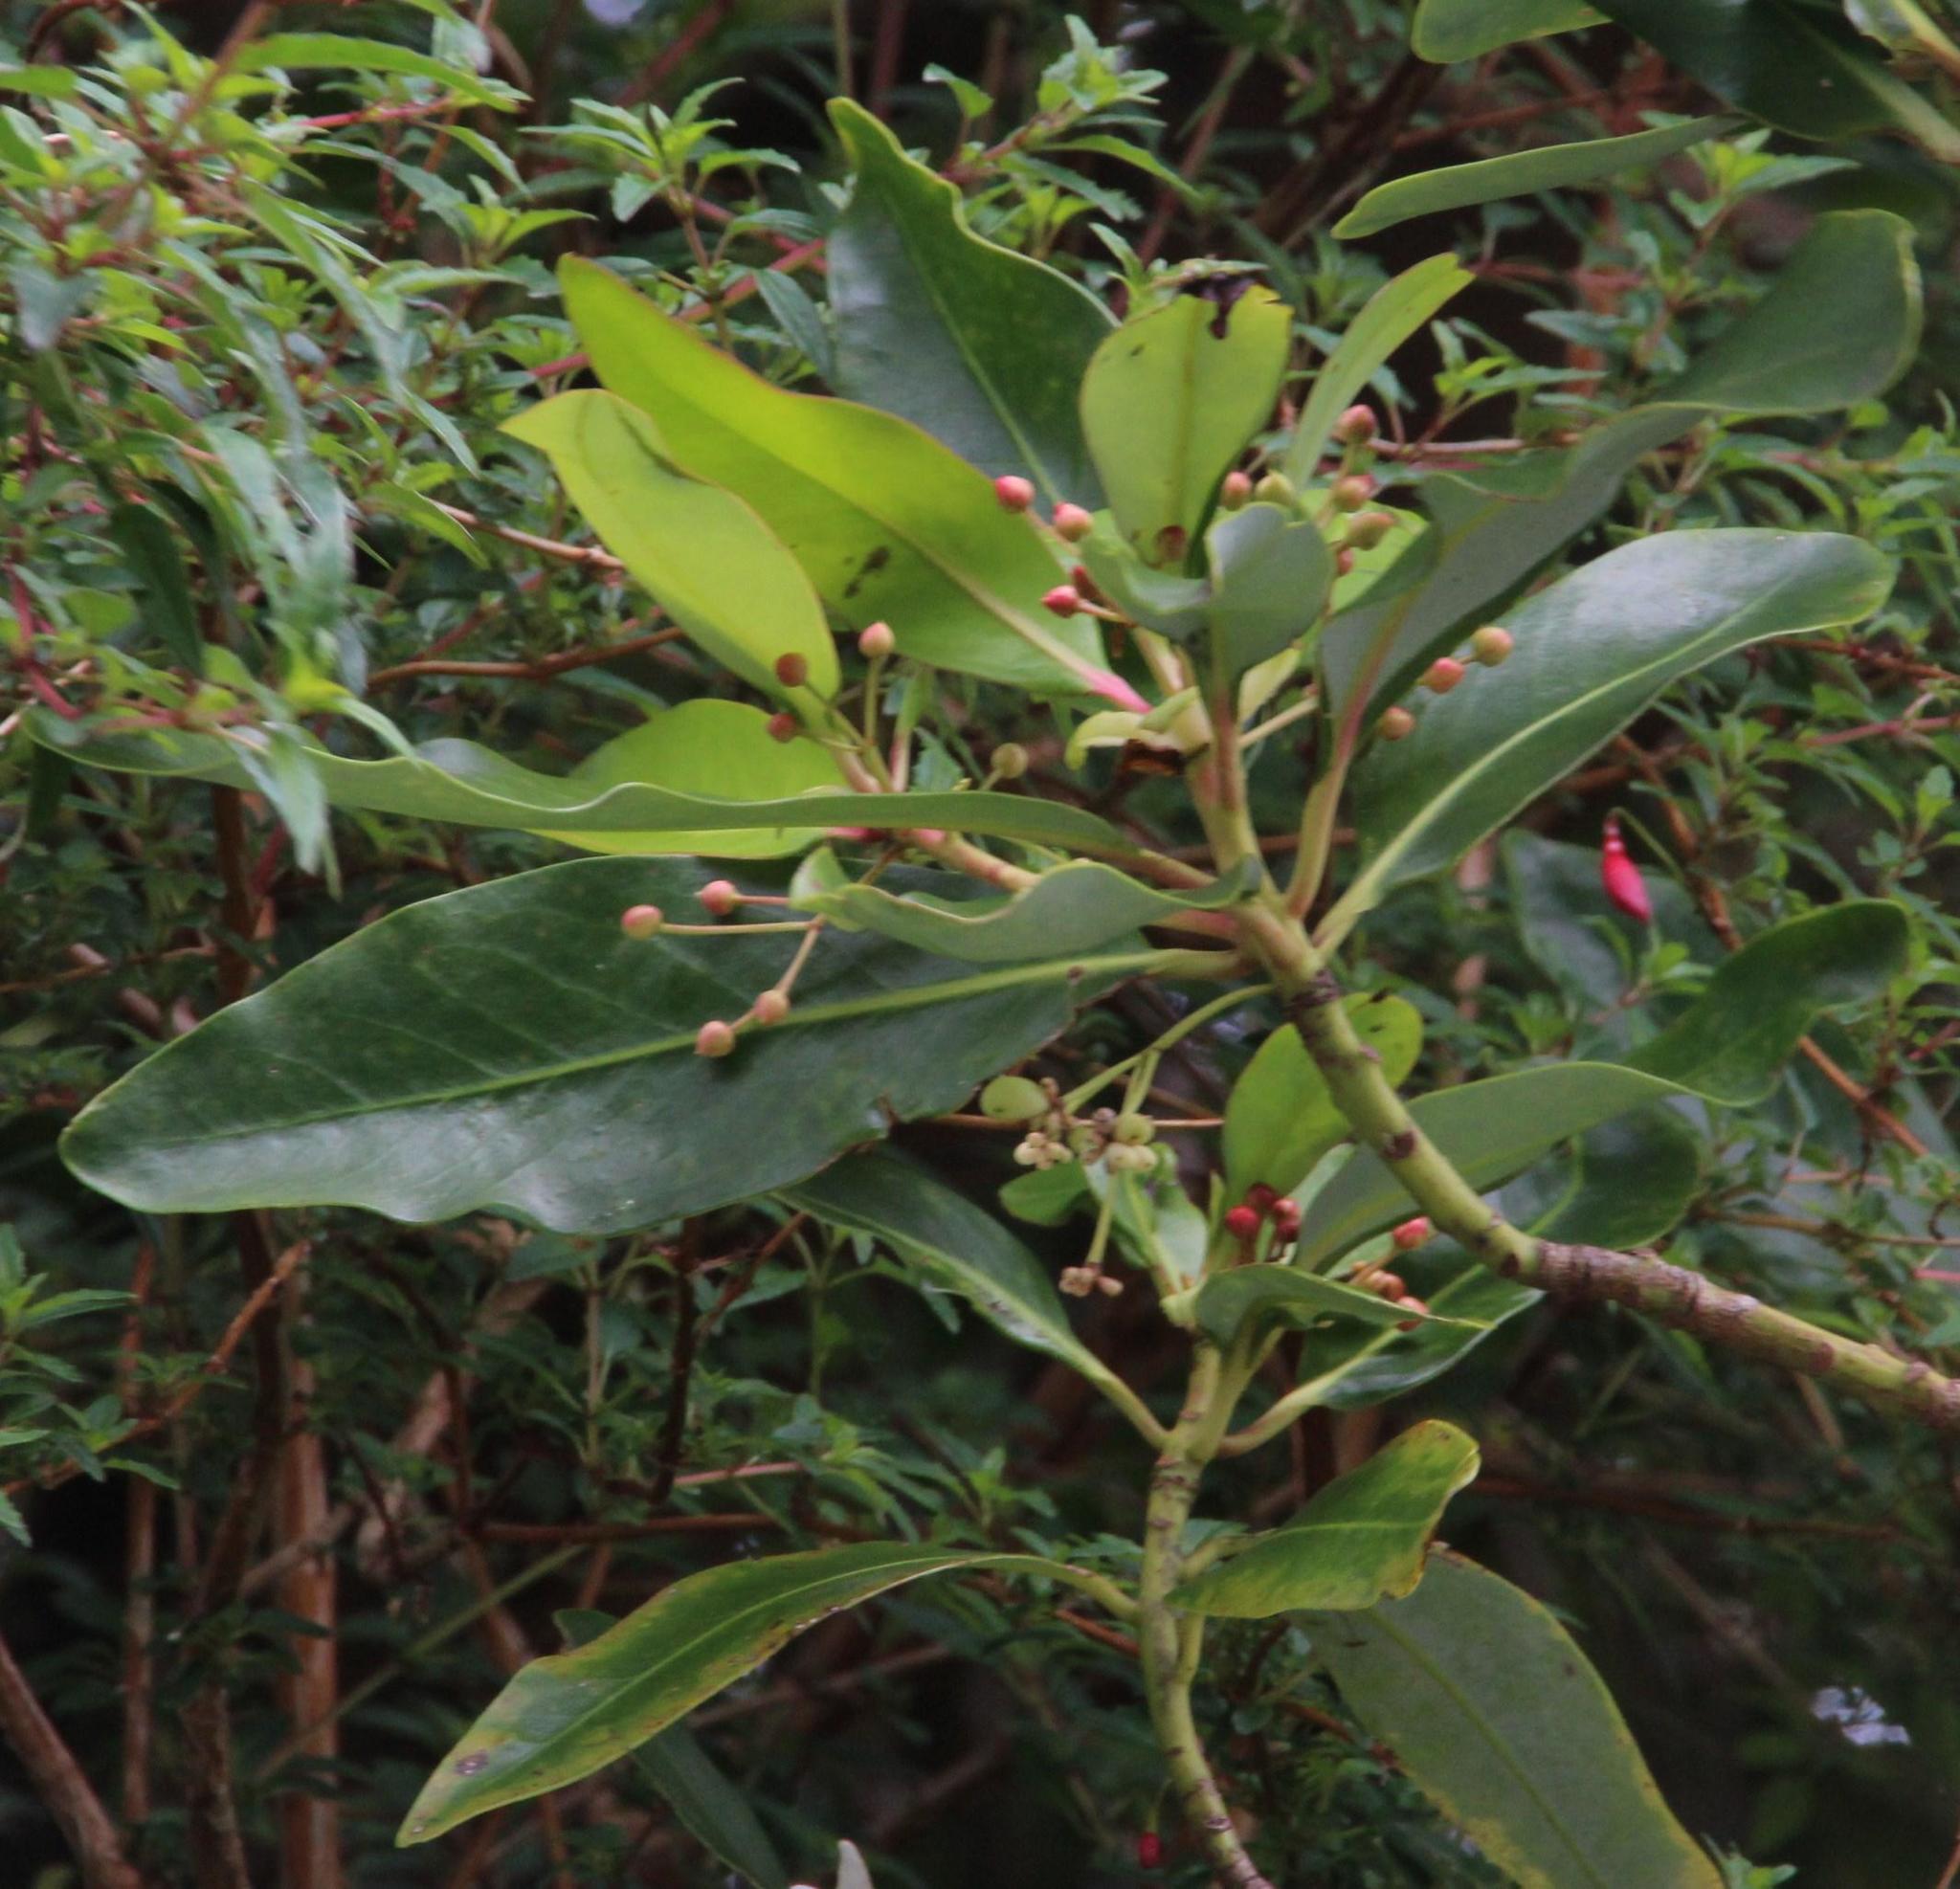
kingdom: Plantae
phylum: Tracheophyta
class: Magnoliopsida
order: Canellales
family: Winteraceae
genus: Drimys
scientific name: Drimys winteri
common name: Winter's-bark
